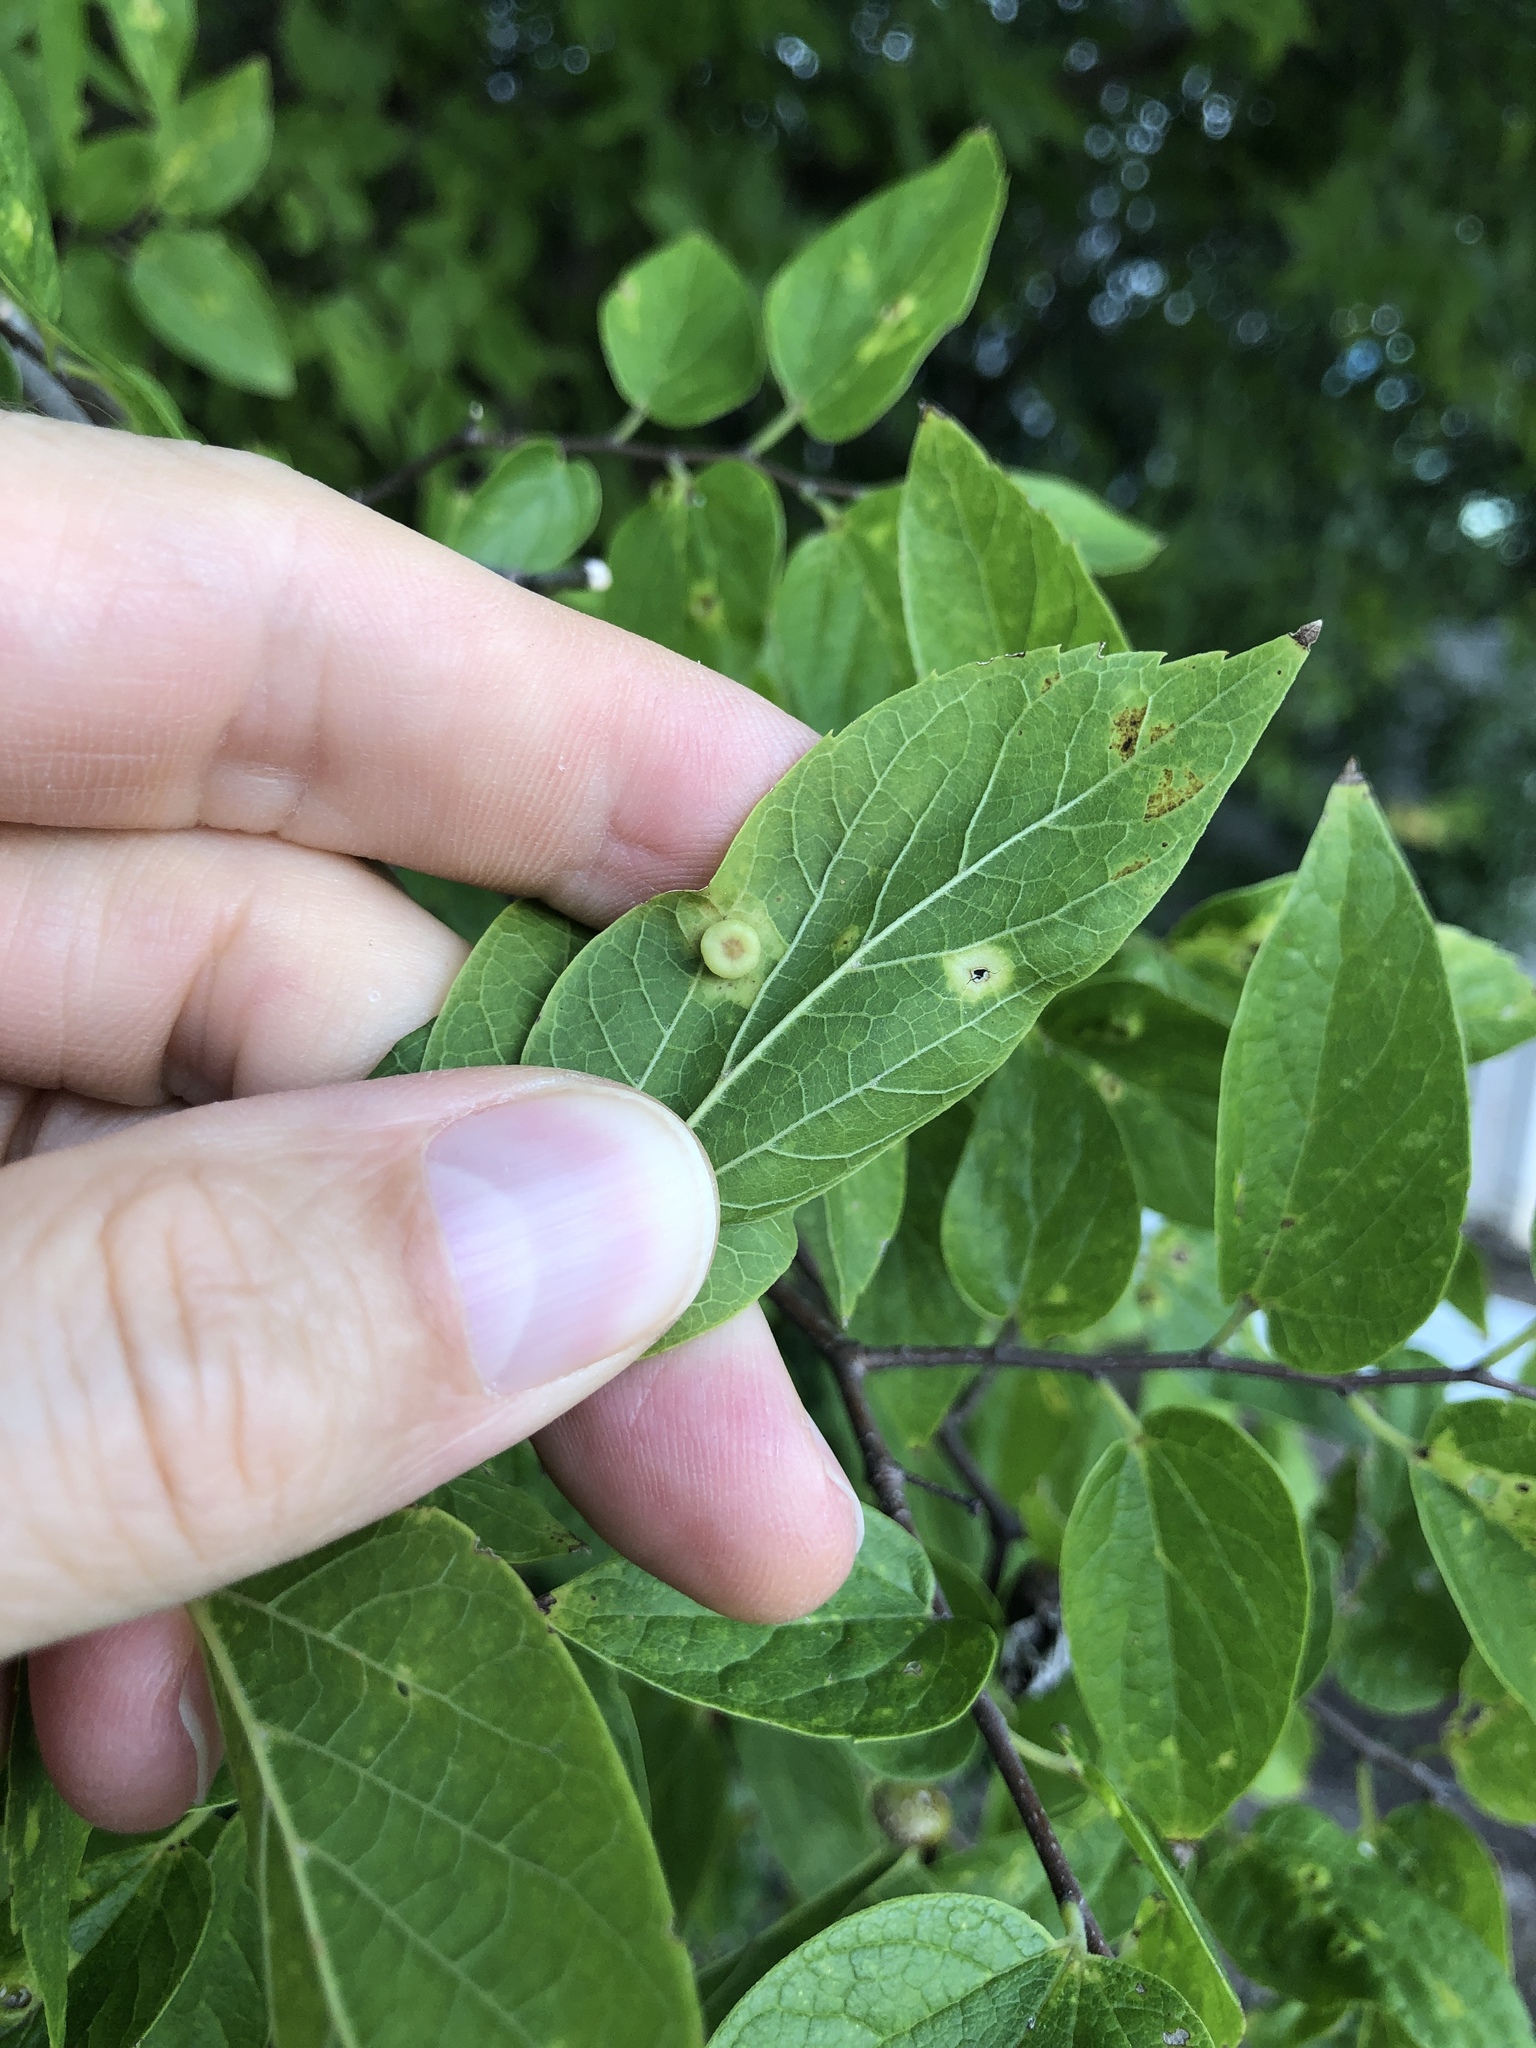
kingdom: Animalia
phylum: Arthropoda
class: Insecta
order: Hemiptera
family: Aphalaridae
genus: Pachypsylla
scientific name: Pachypsylla celtidismamma
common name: Hackberry nipplegall psyllid
